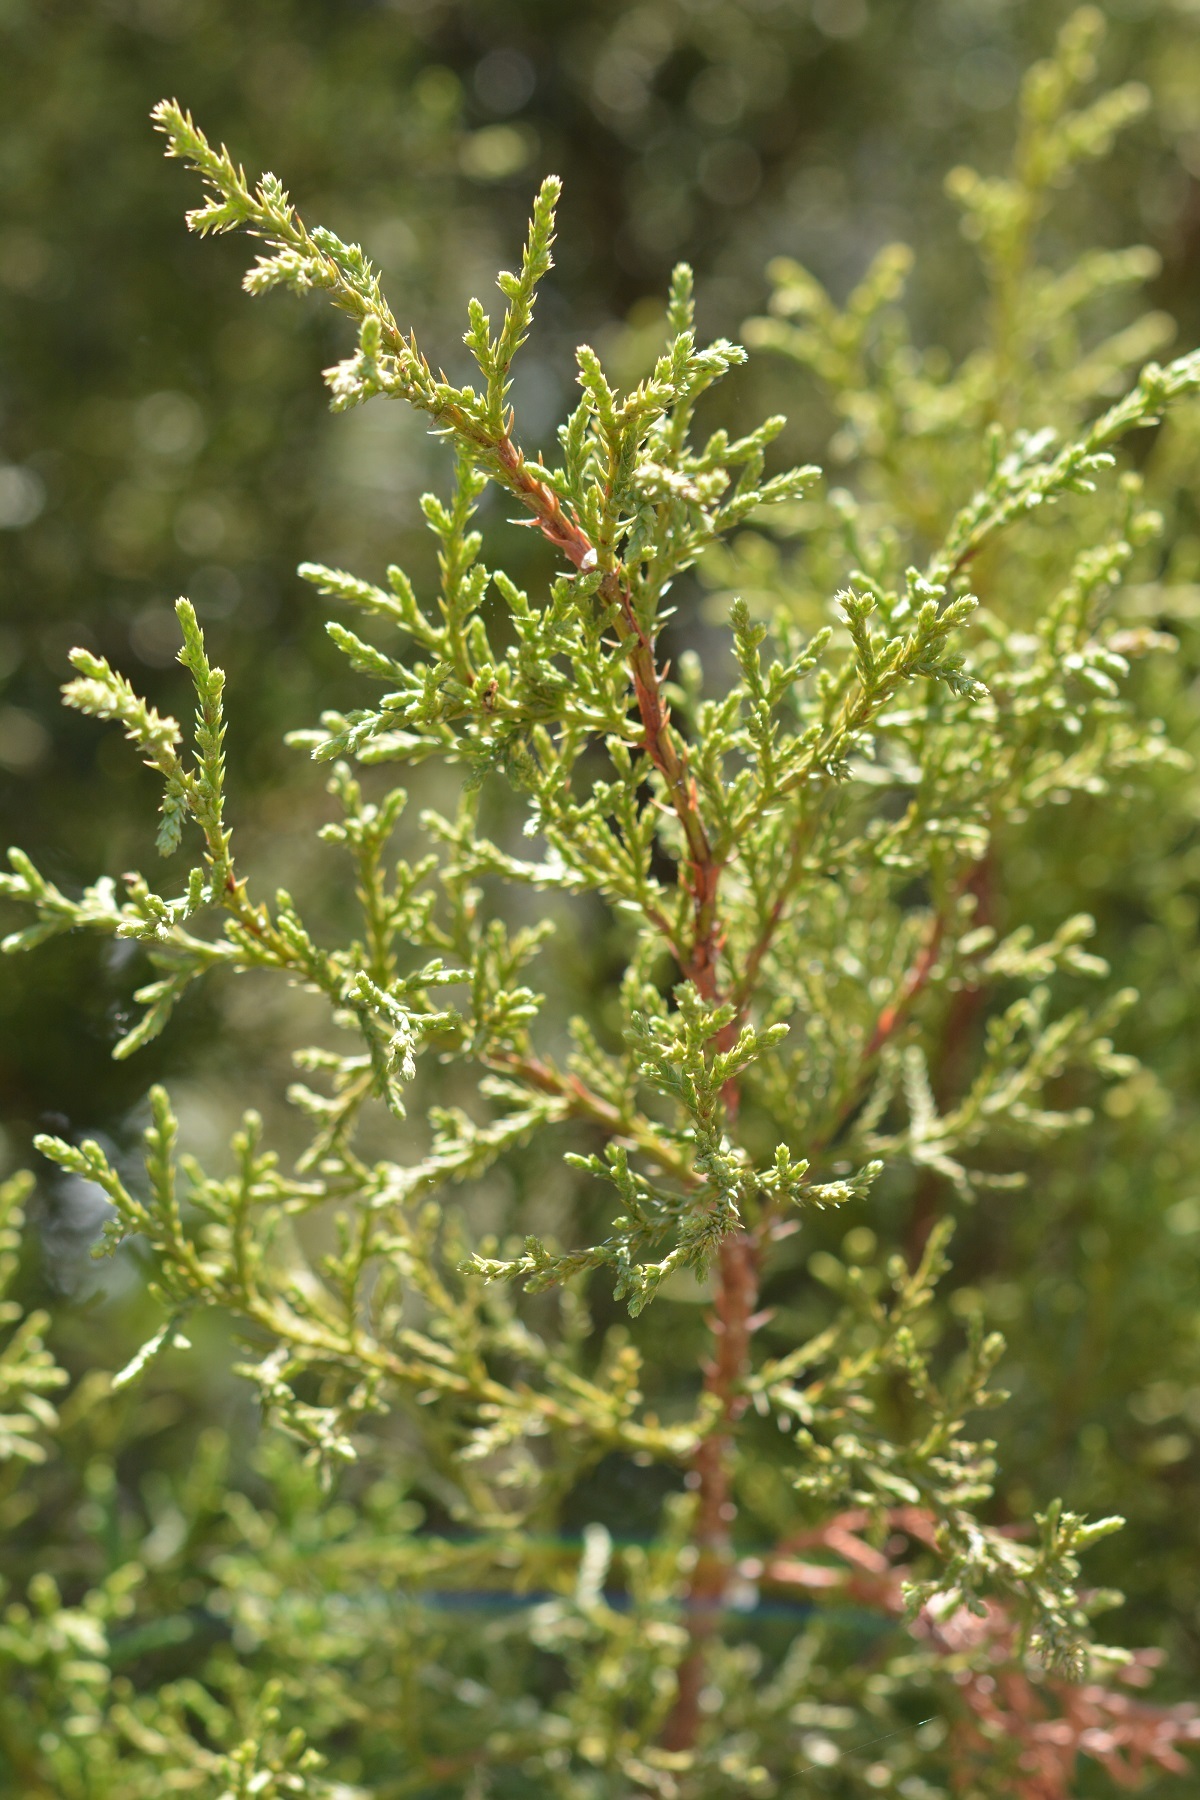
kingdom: Plantae
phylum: Tracheophyta
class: Pinopsida
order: Pinales
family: Cupressaceae
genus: Juniperus
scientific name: Juniperus gamboana
